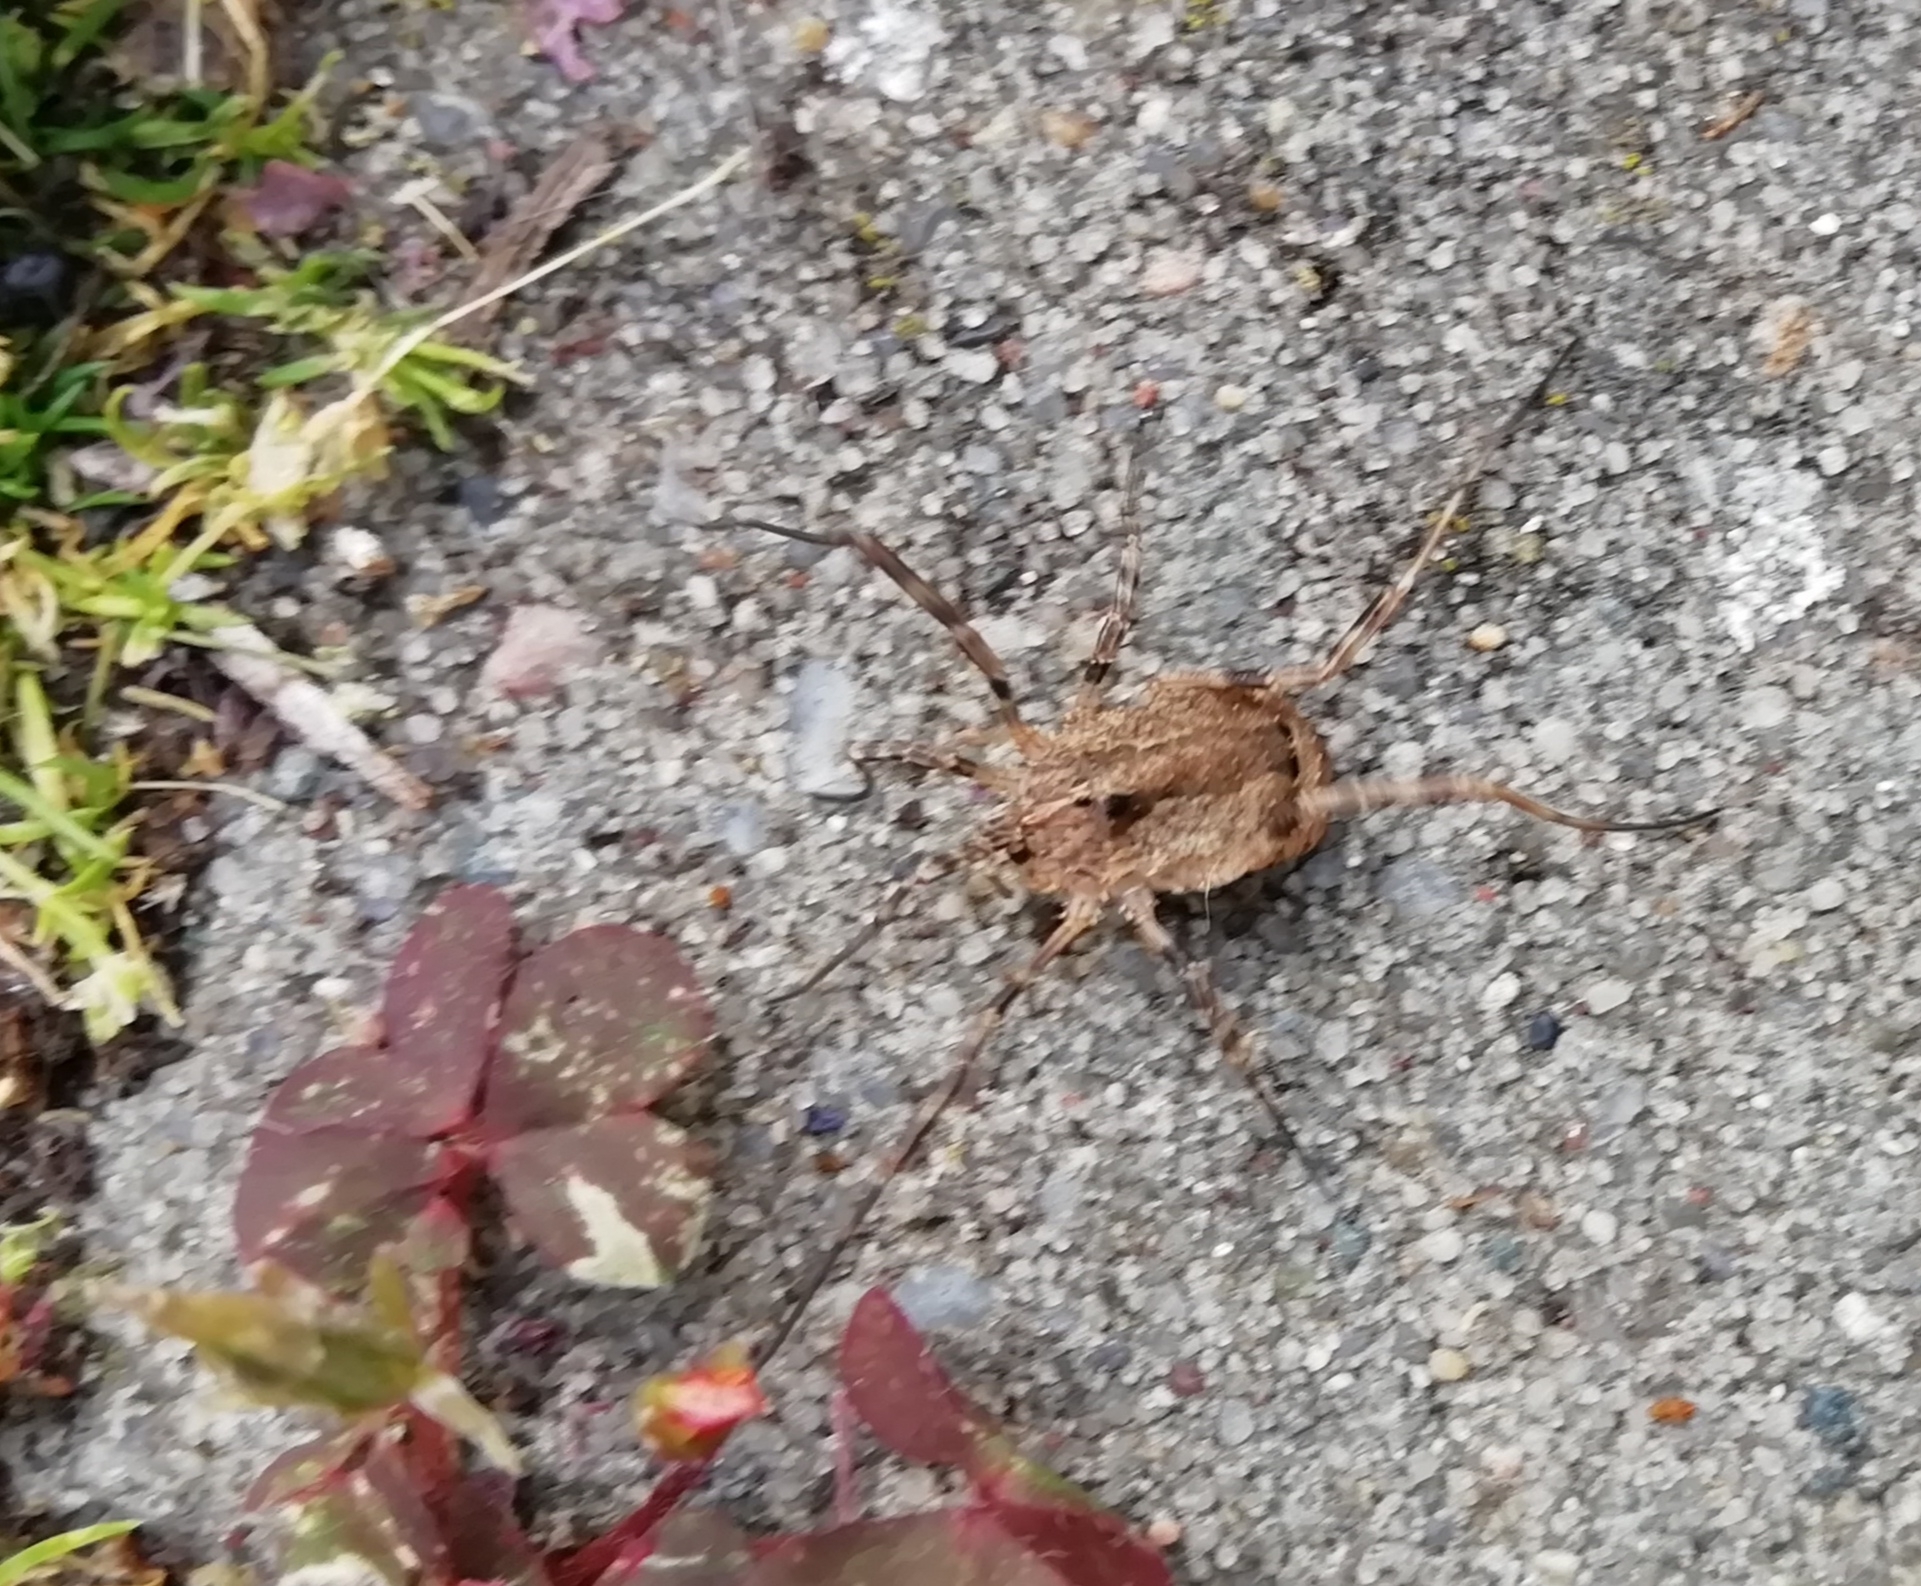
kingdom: Animalia
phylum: Arthropoda
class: Arachnida
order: Opiliones
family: Phalangiidae
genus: Odiellus
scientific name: Odiellus spinosus
